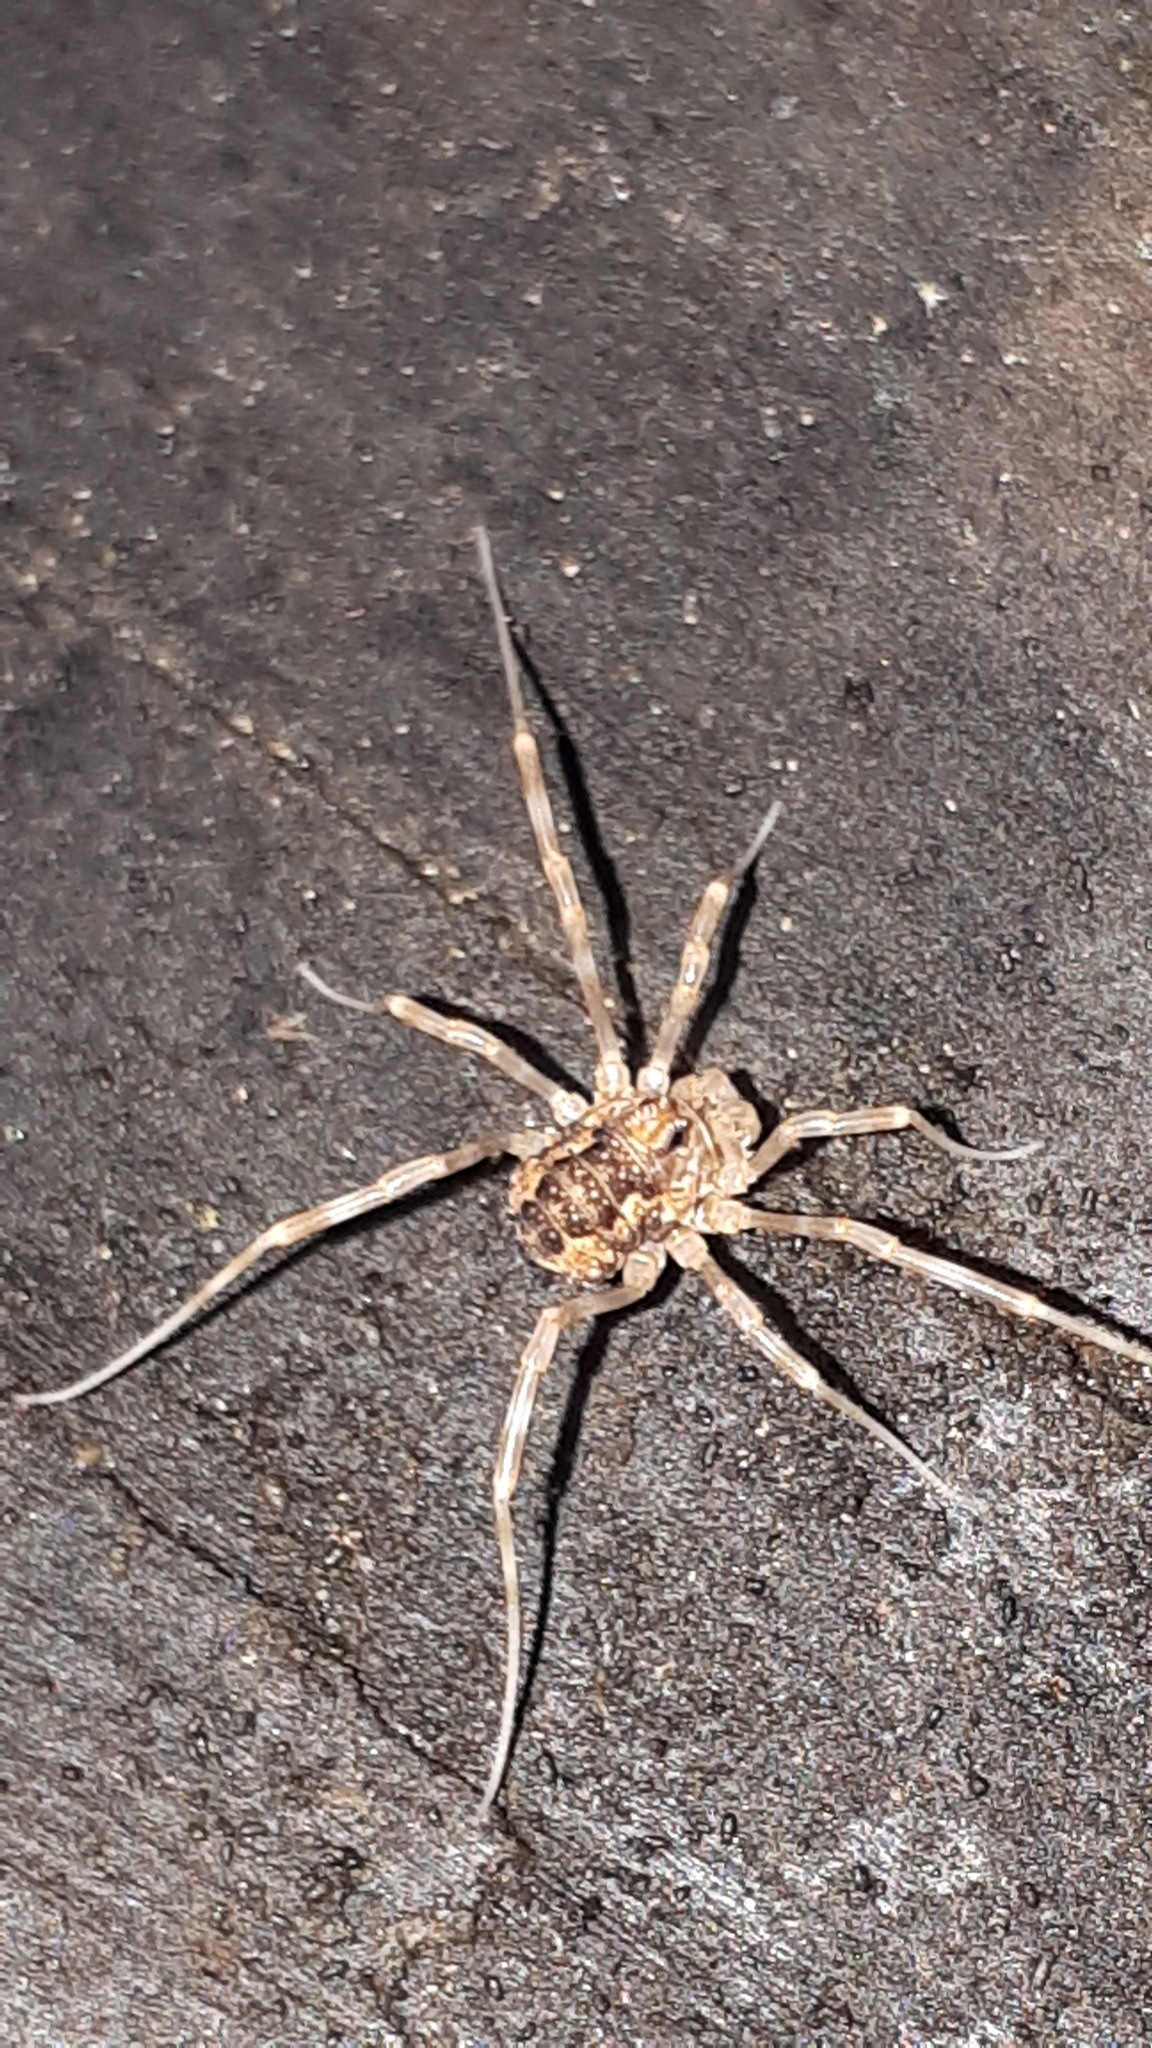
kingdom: Animalia
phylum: Arthropoda
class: Arachnida
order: Opiliones
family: Phalangiidae
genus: Rilaena
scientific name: Rilaena triangularis
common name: Spring harvestman
